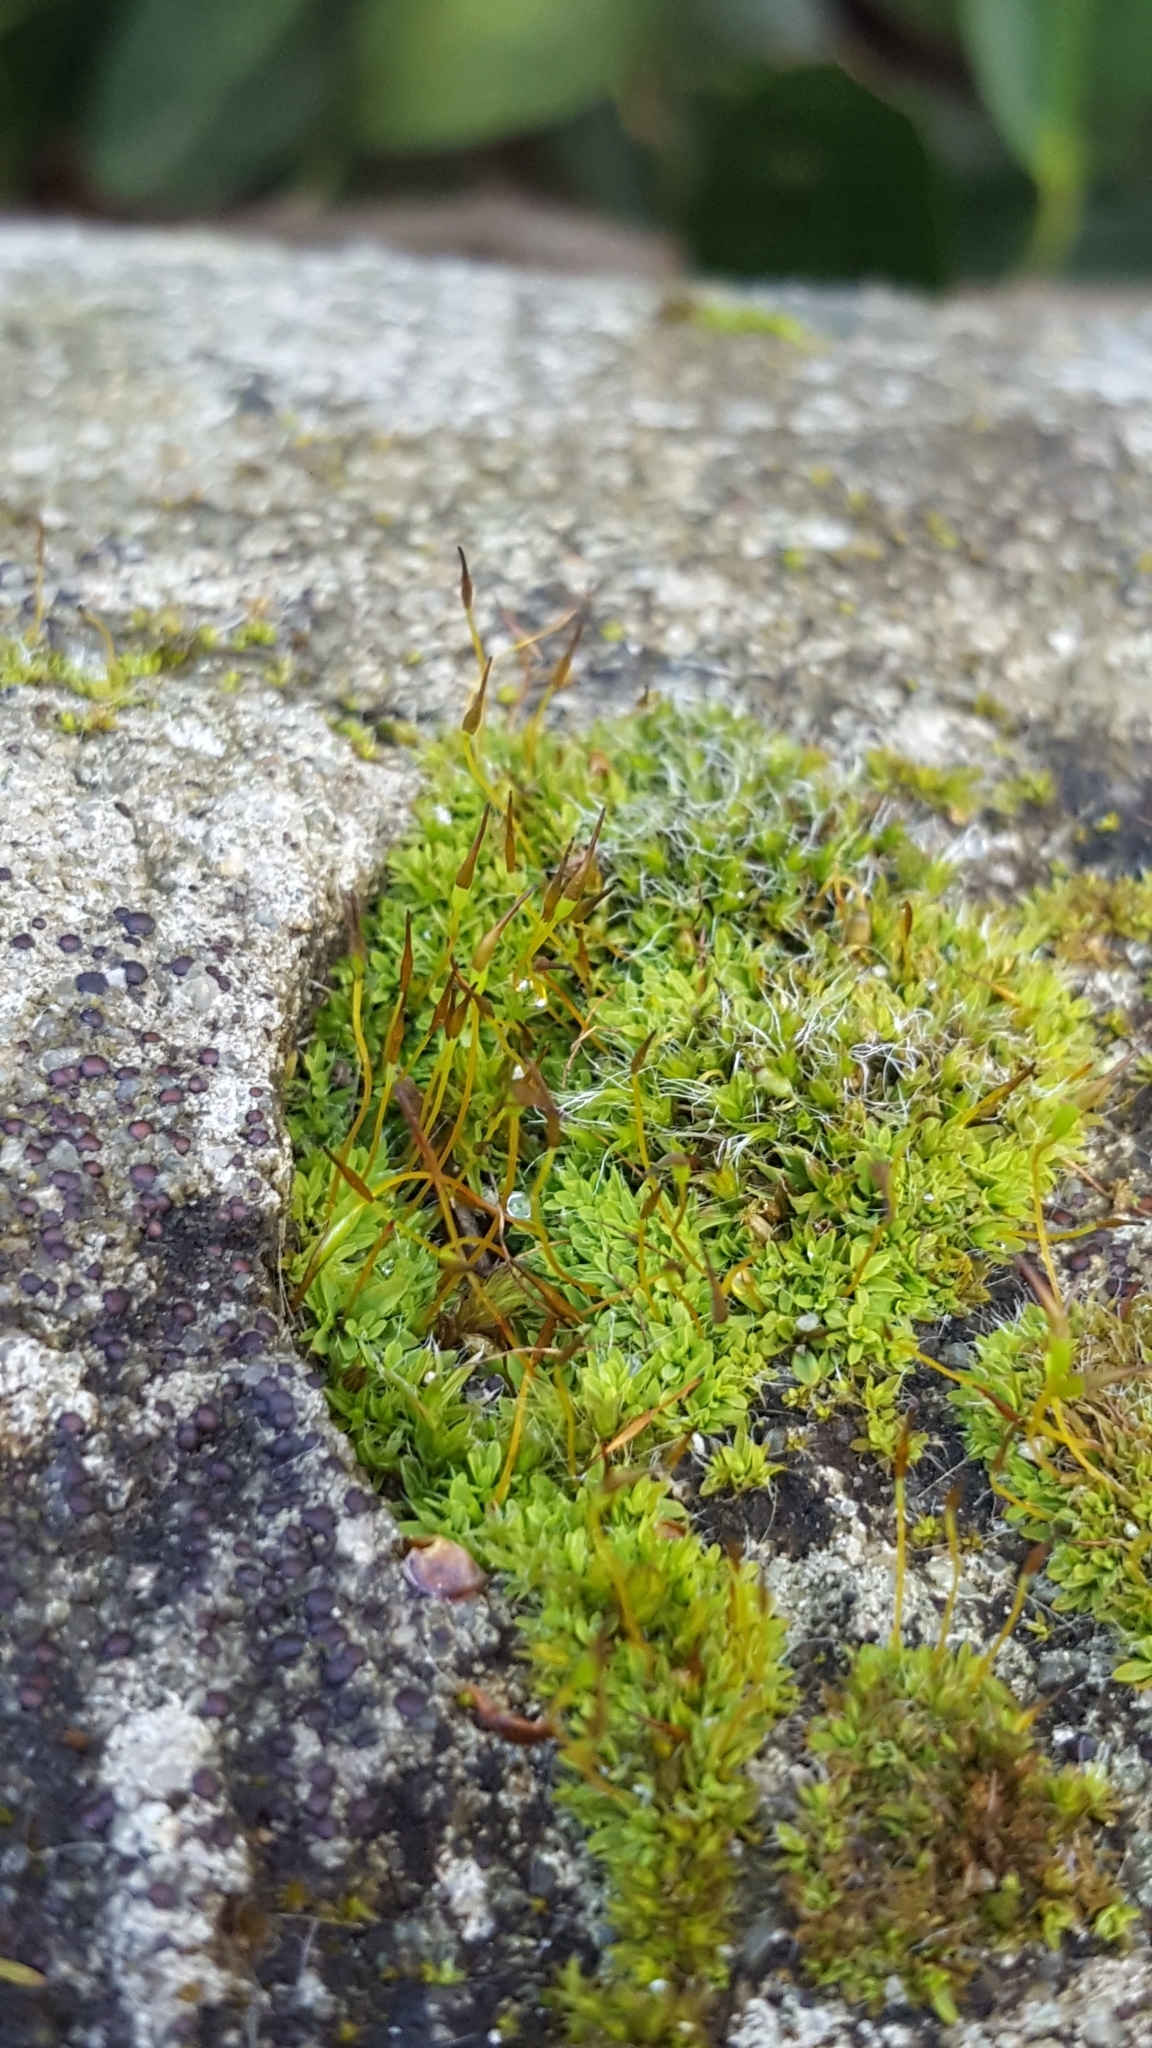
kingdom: Plantae
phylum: Bryophyta
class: Bryopsida
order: Grimmiales
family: Grimmiaceae
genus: Grimmia
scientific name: Grimmia pulvinata
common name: Grey-cushioned grimmia
